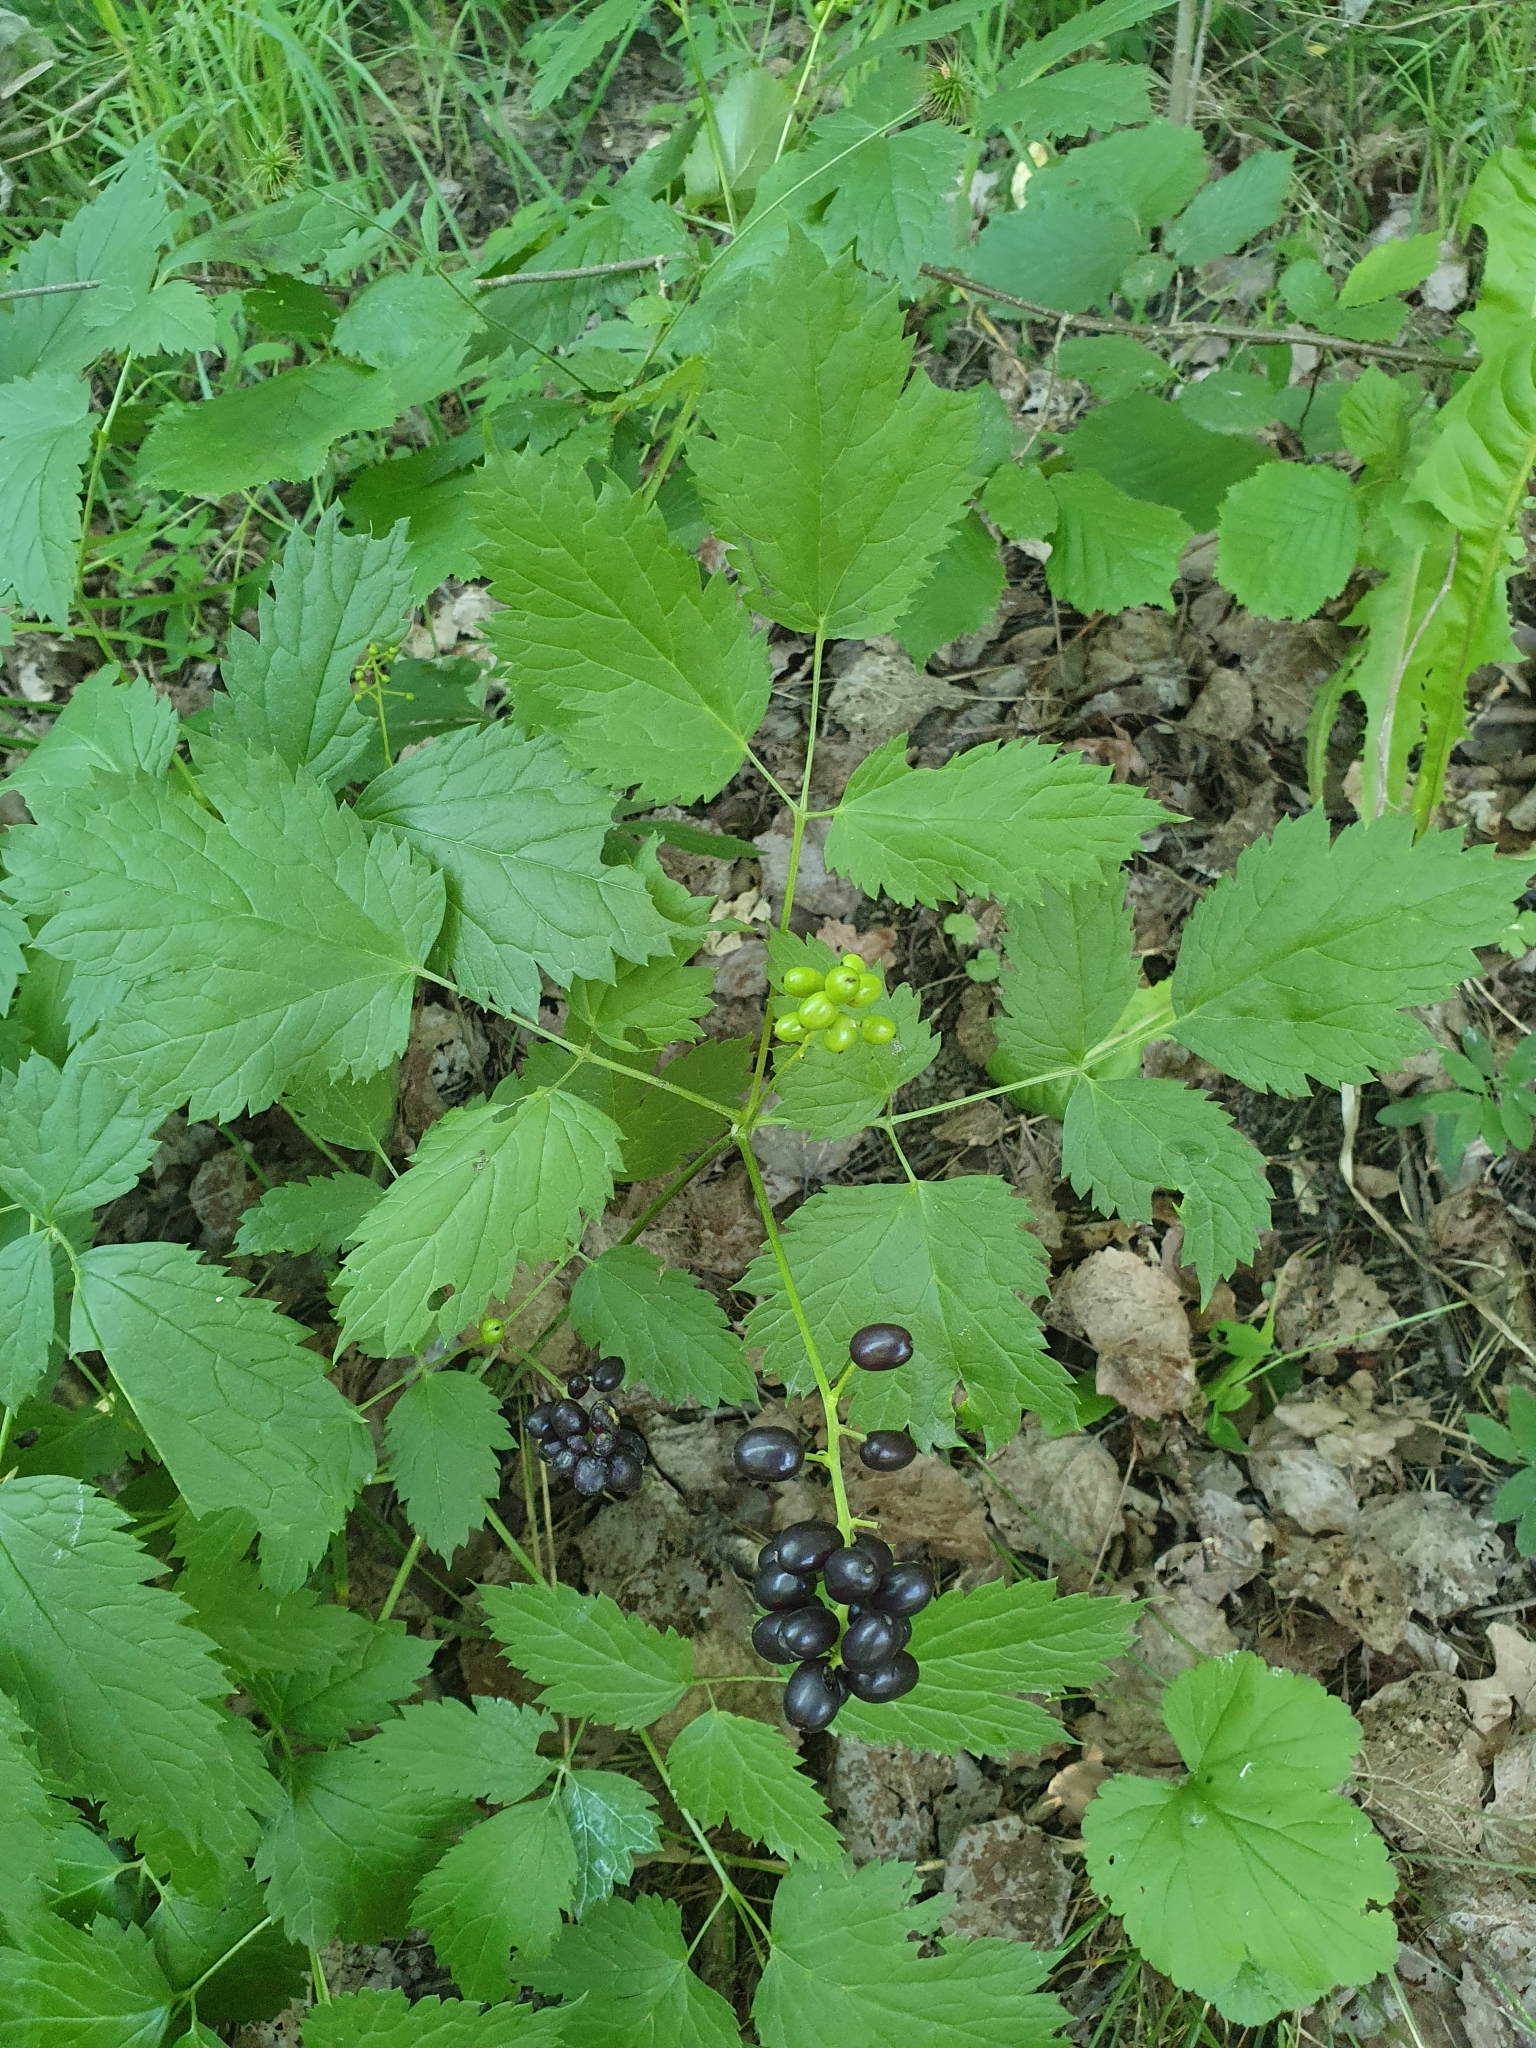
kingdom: Plantae
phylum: Tracheophyta
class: Magnoliopsida
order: Ranunculales
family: Ranunculaceae
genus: Actaea
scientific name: Actaea spicata
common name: Baneberry
